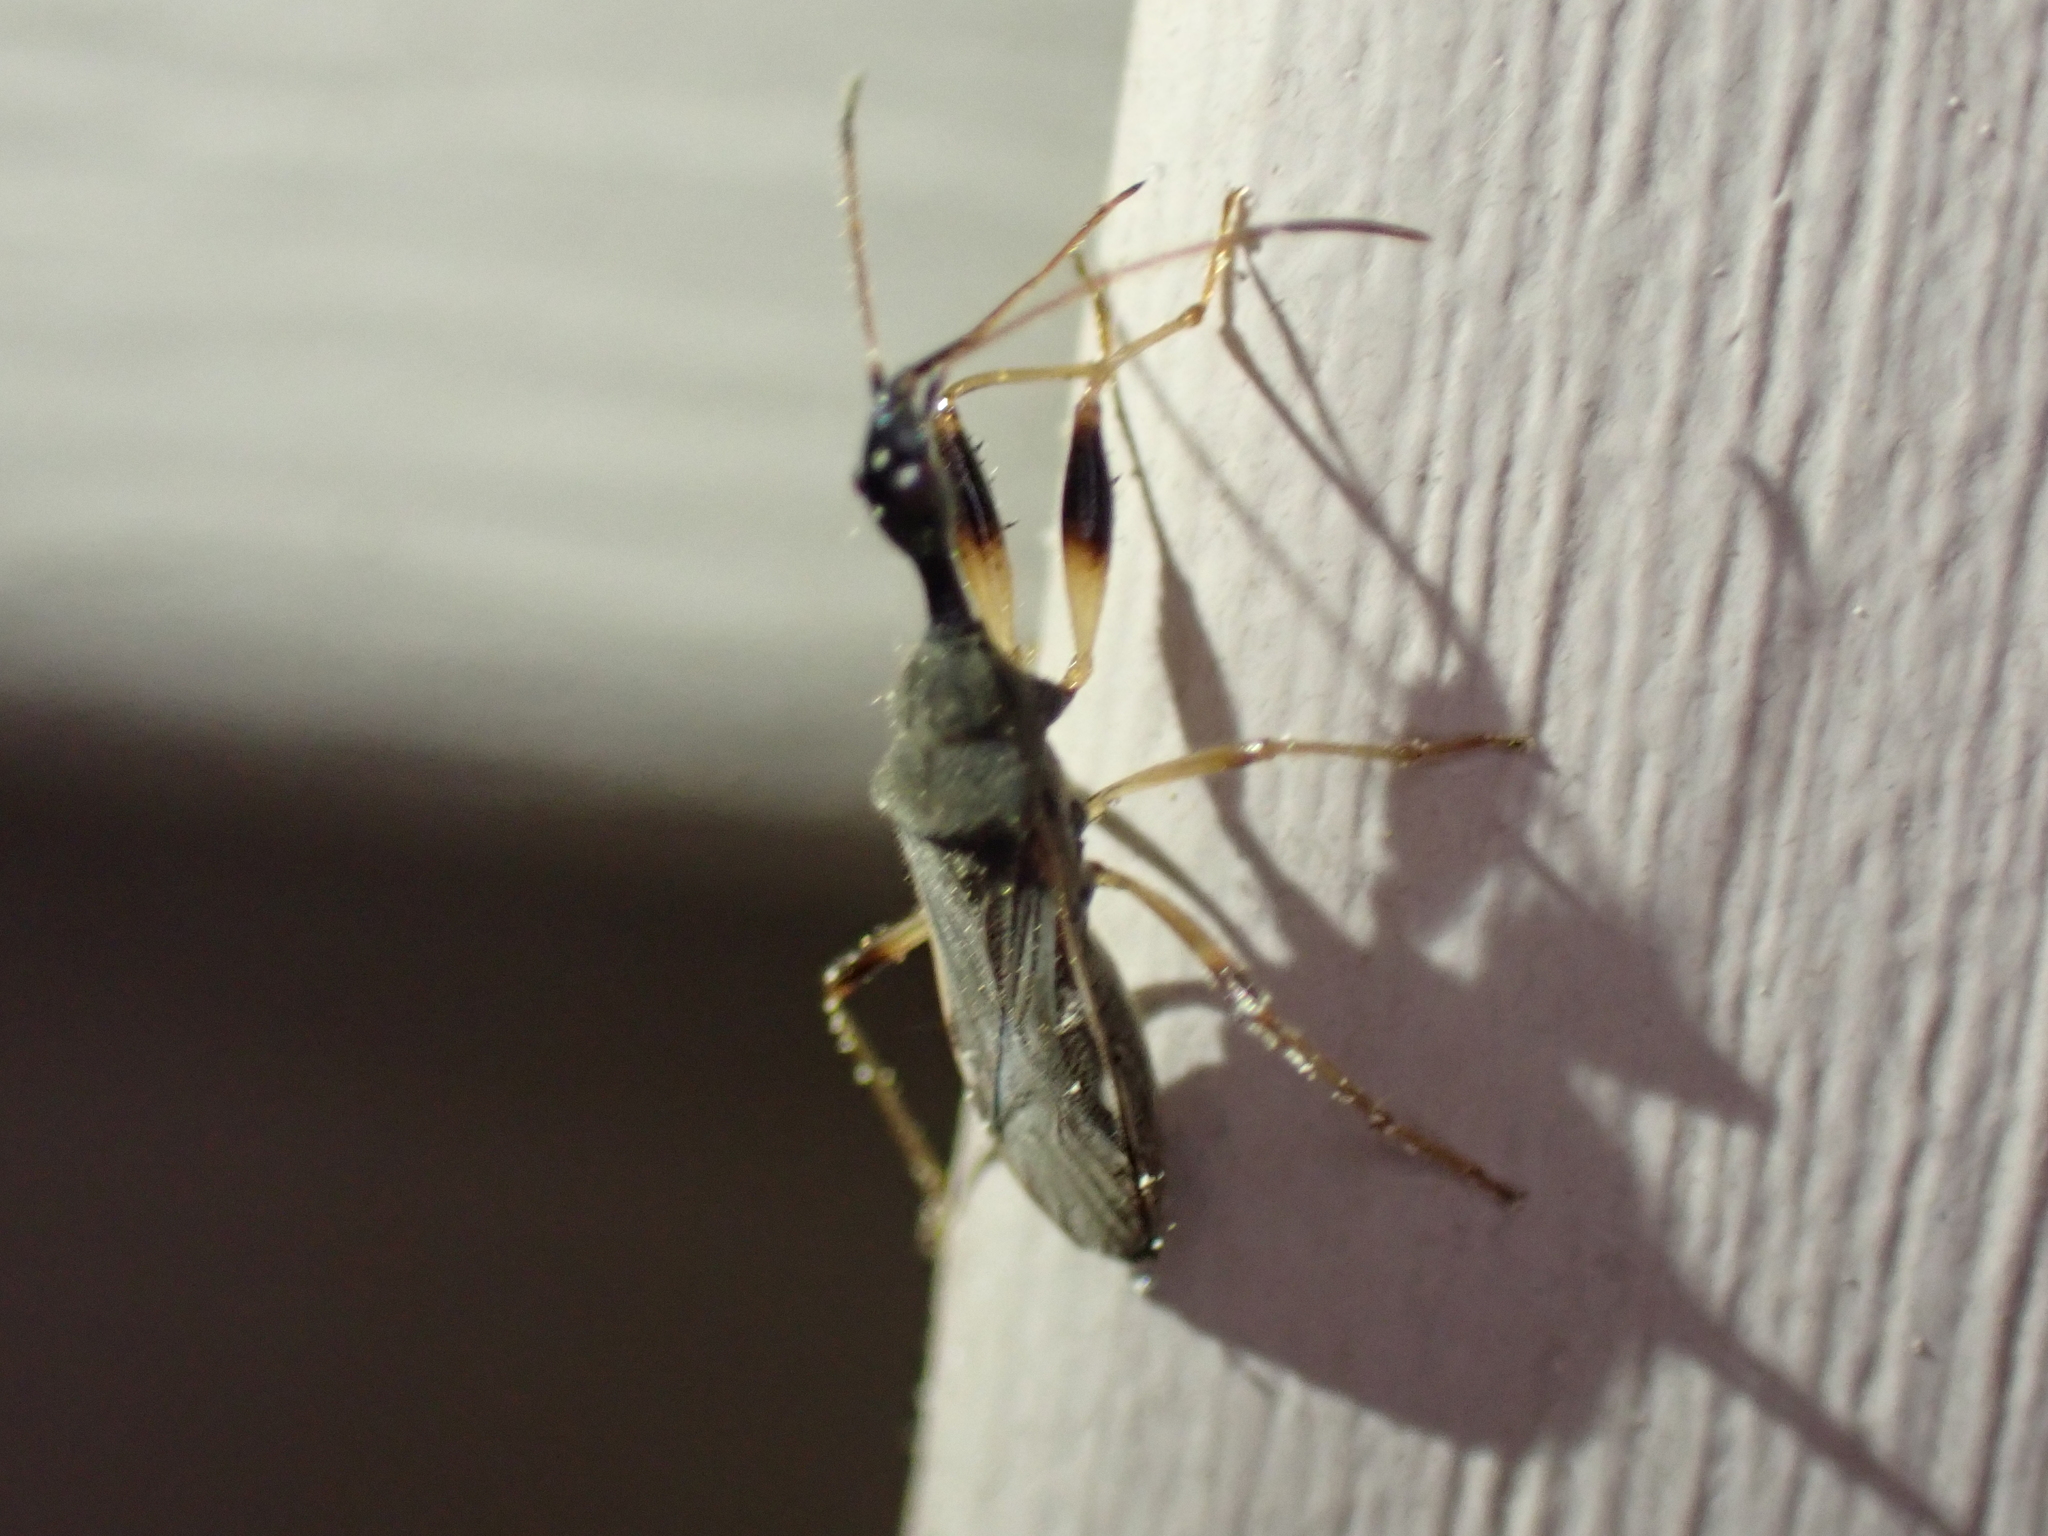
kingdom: Animalia
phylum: Arthropoda
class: Insecta
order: Hemiptera
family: Rhyparochromidae
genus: Myodocha
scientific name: Myodocha serripes
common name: Long-necked seed bug
